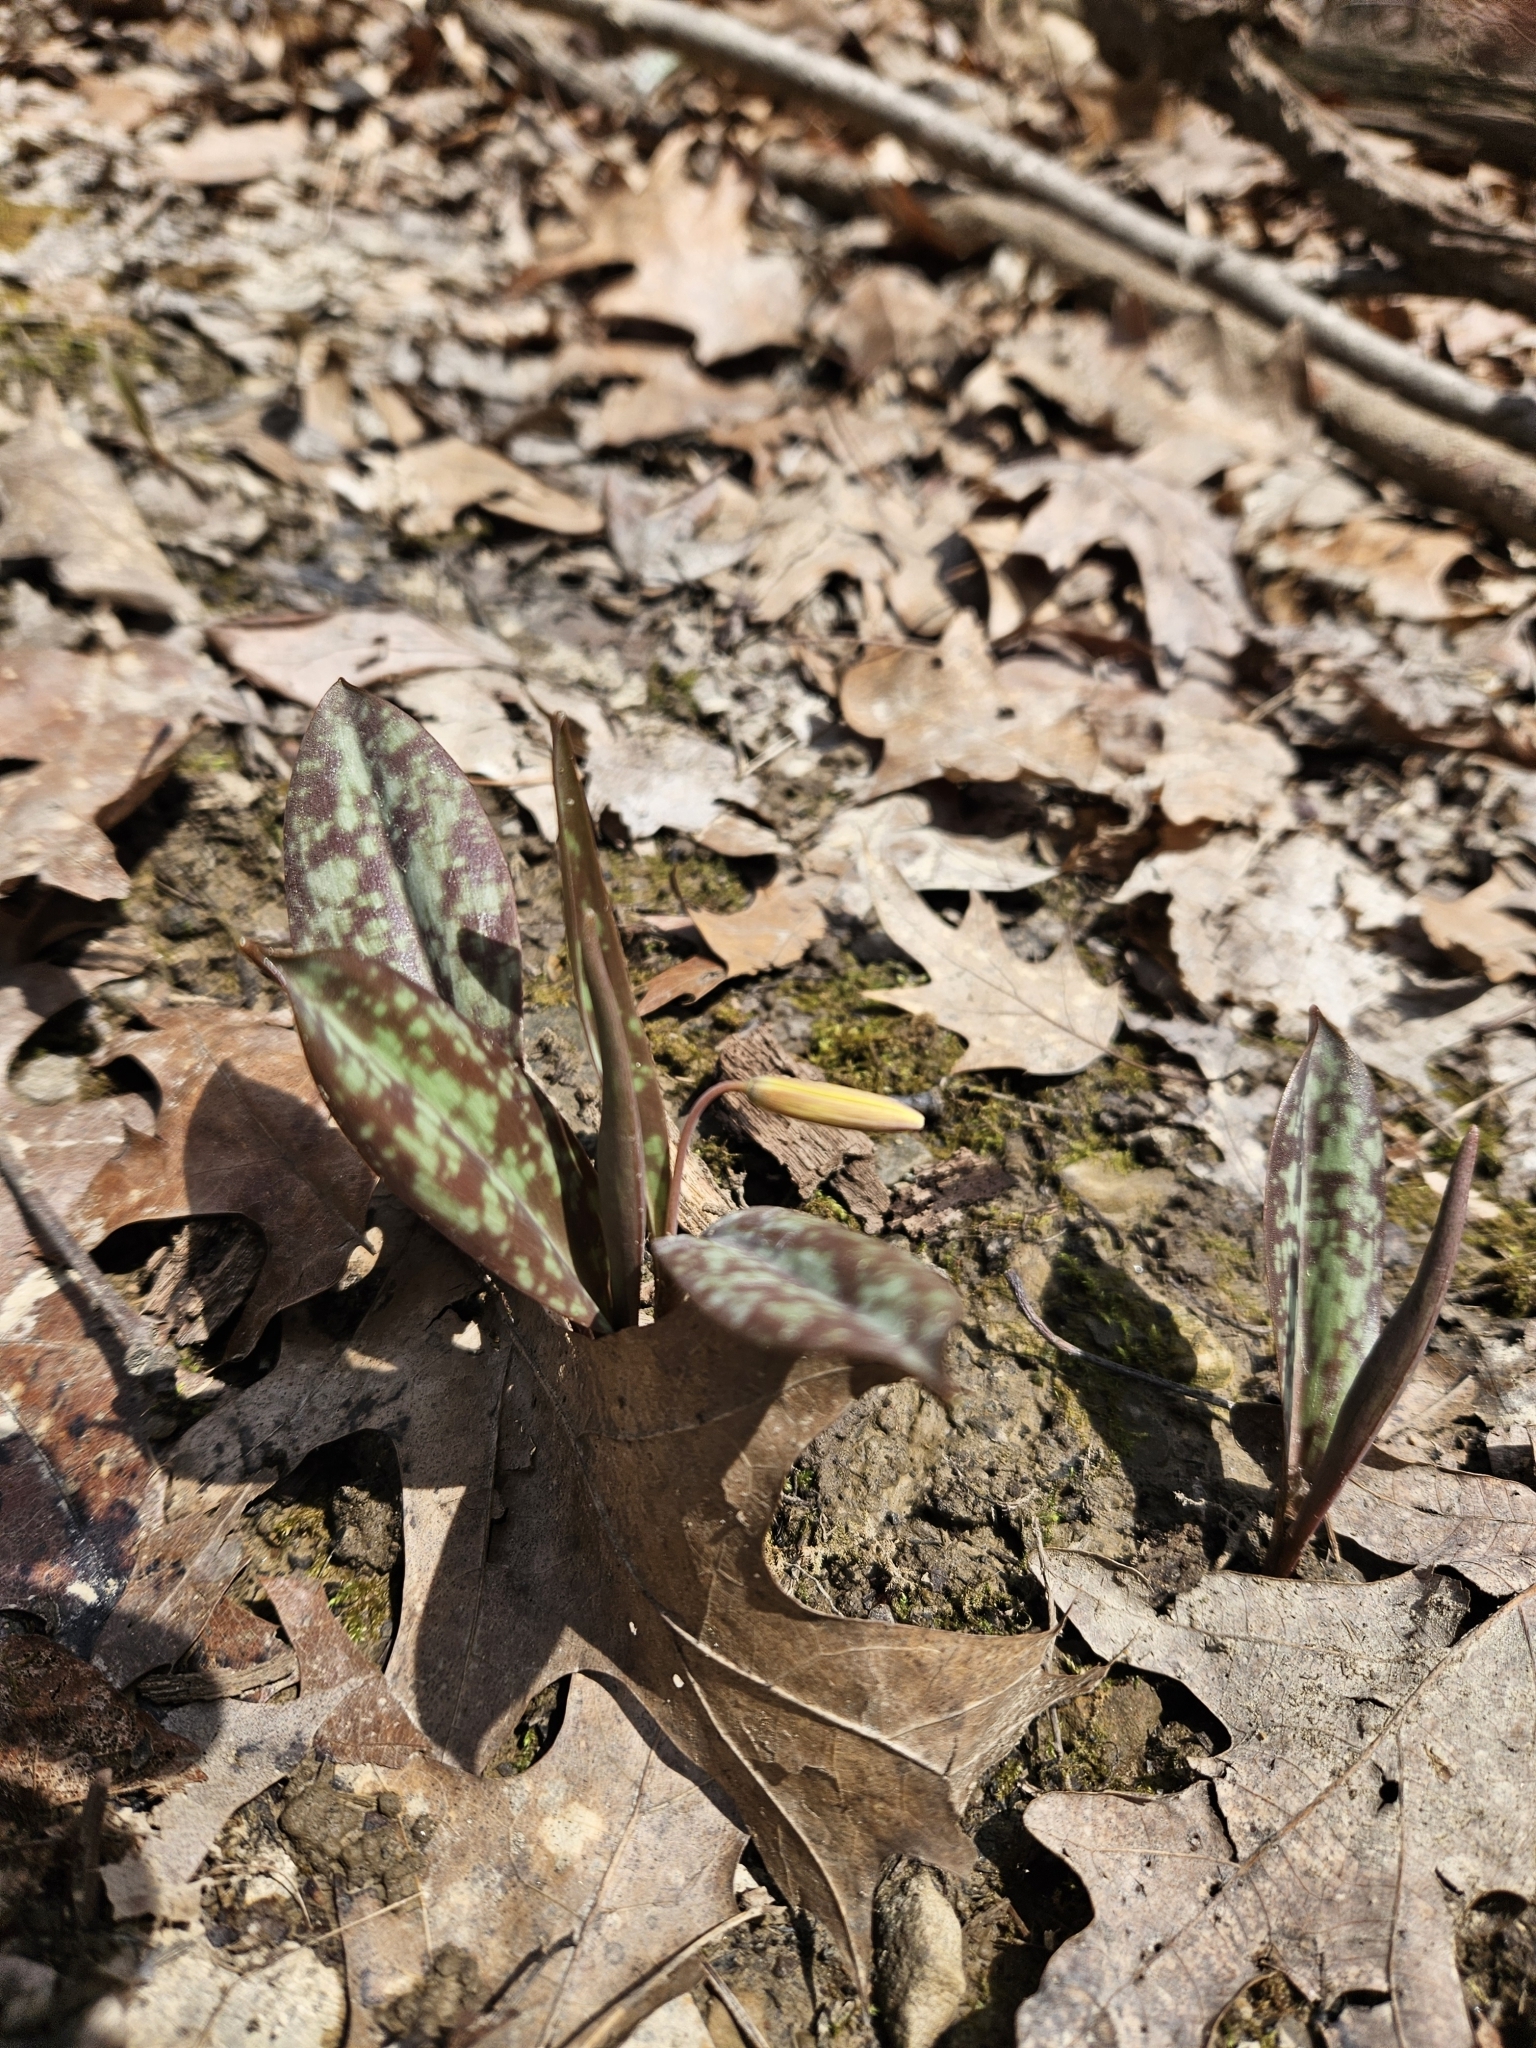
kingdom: Plantae
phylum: Tracheophyta
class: Liliopsida
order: Liliales
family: Liliaceae
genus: Erythronium
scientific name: Erythronium americanum
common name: Yellow adder's-tongue
